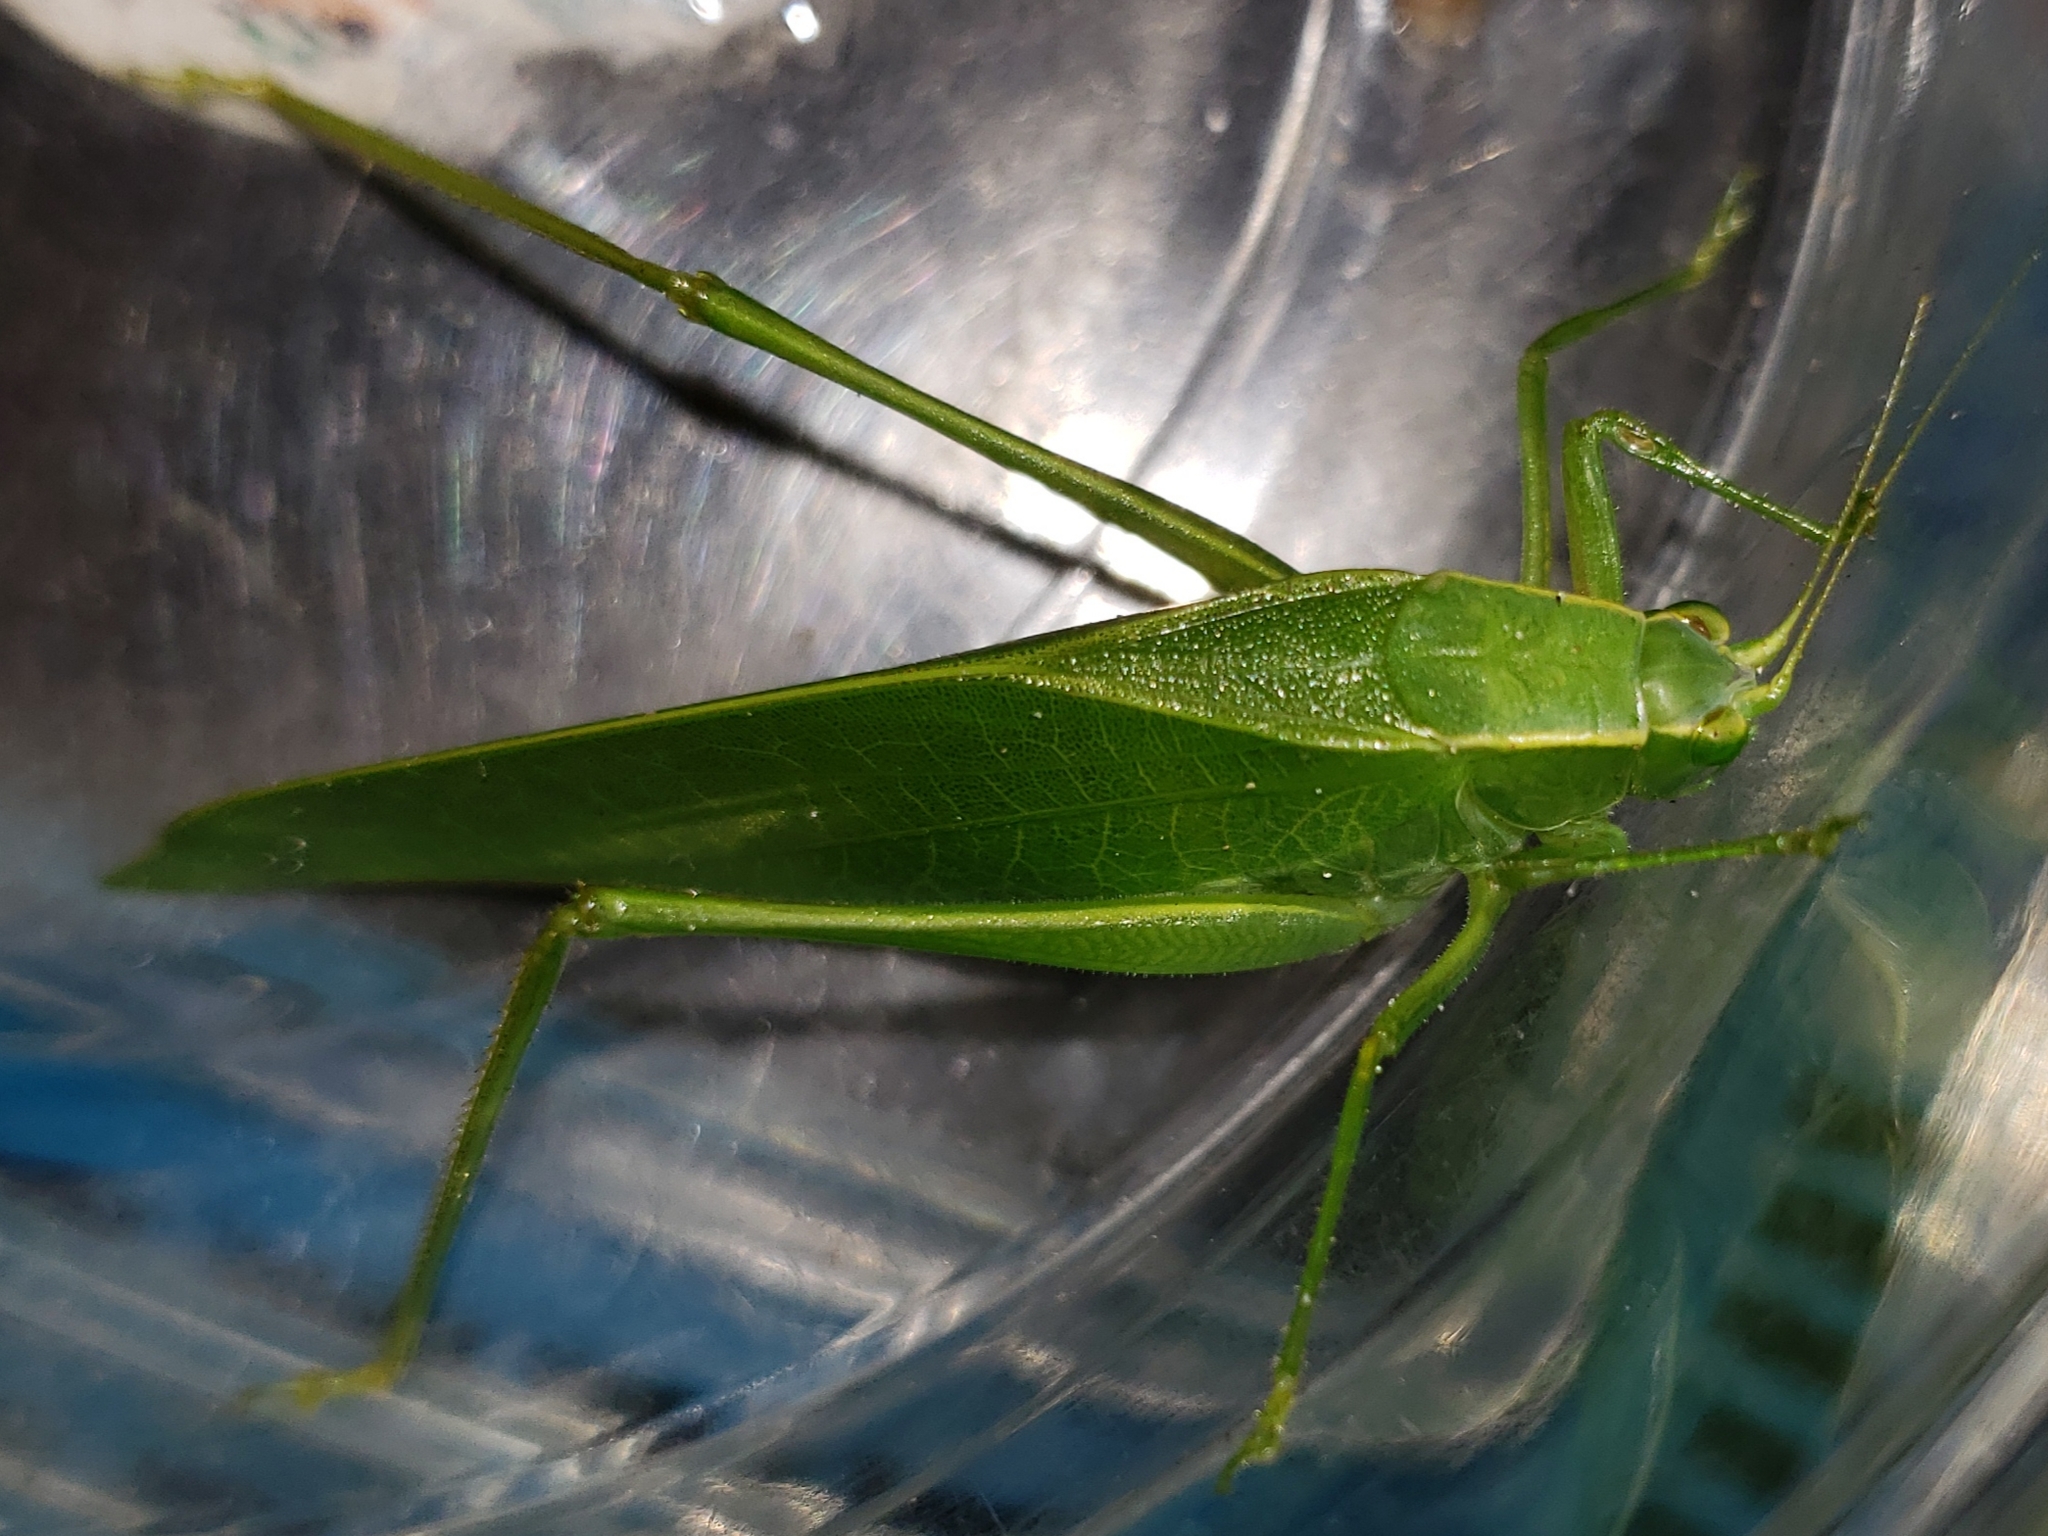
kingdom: Animalia
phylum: Arthropoda
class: Insecta
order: Orthoptera
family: Tettigoniidae
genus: Turpilia
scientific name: Turpilia rostrata
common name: Narrow-beaked katydid
